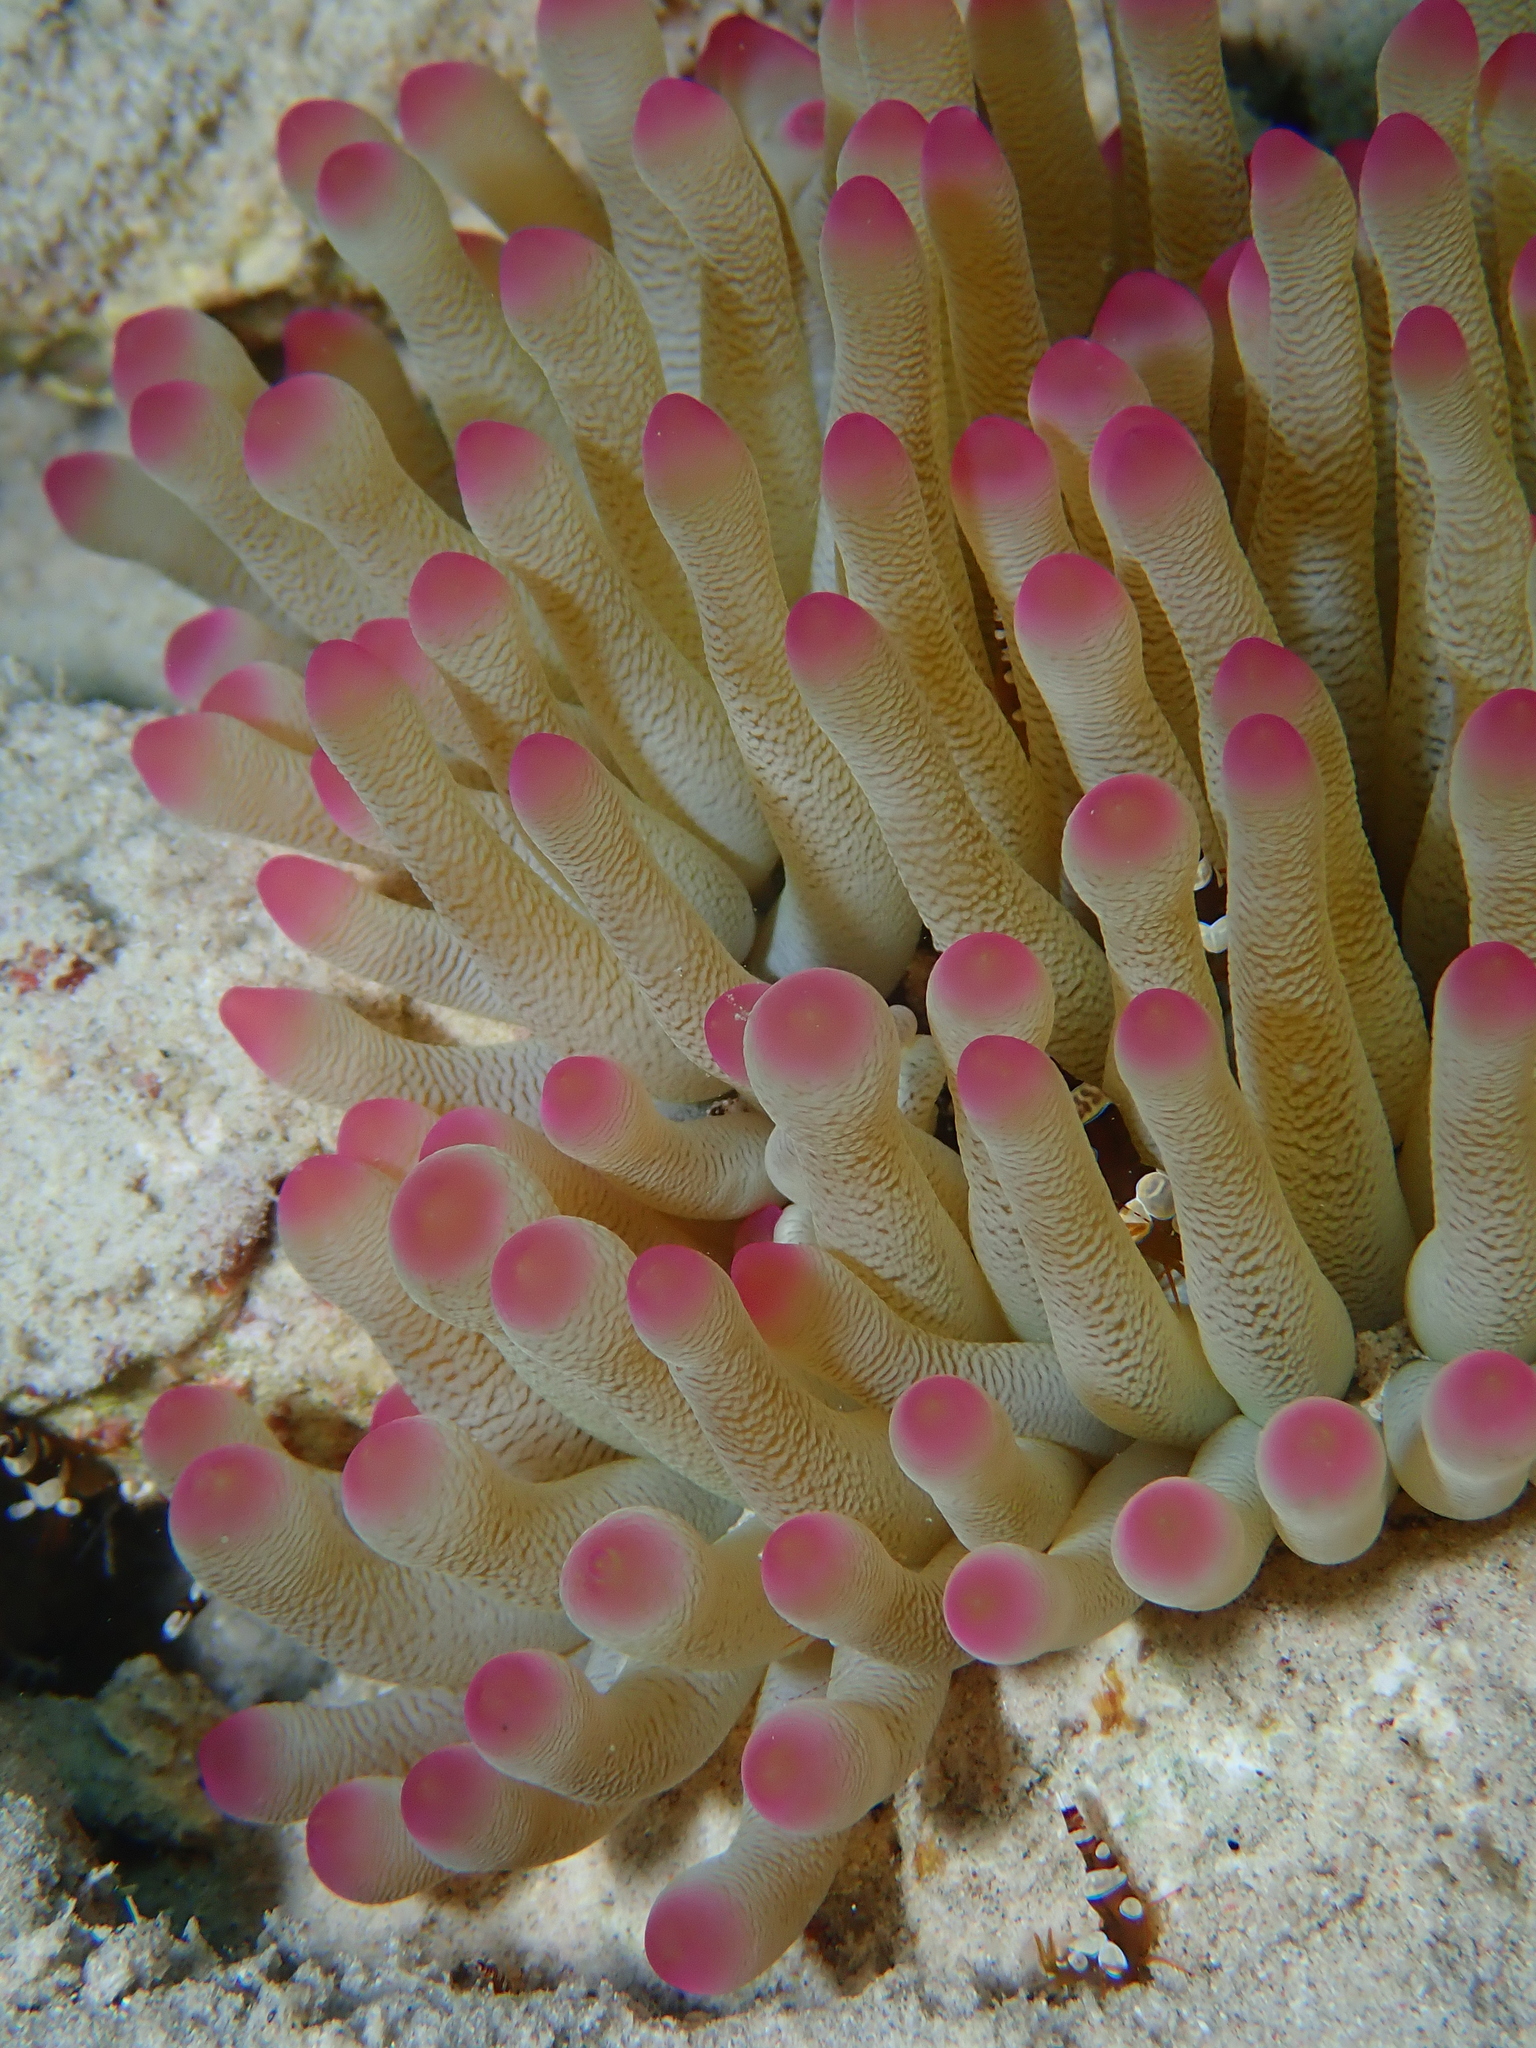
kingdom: Animalia
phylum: Cnidaria
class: Anthozoa
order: Actiniaria
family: Actiniidae
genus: Condylactis
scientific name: Condylactis gigantea
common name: Giant caribbean anemone
